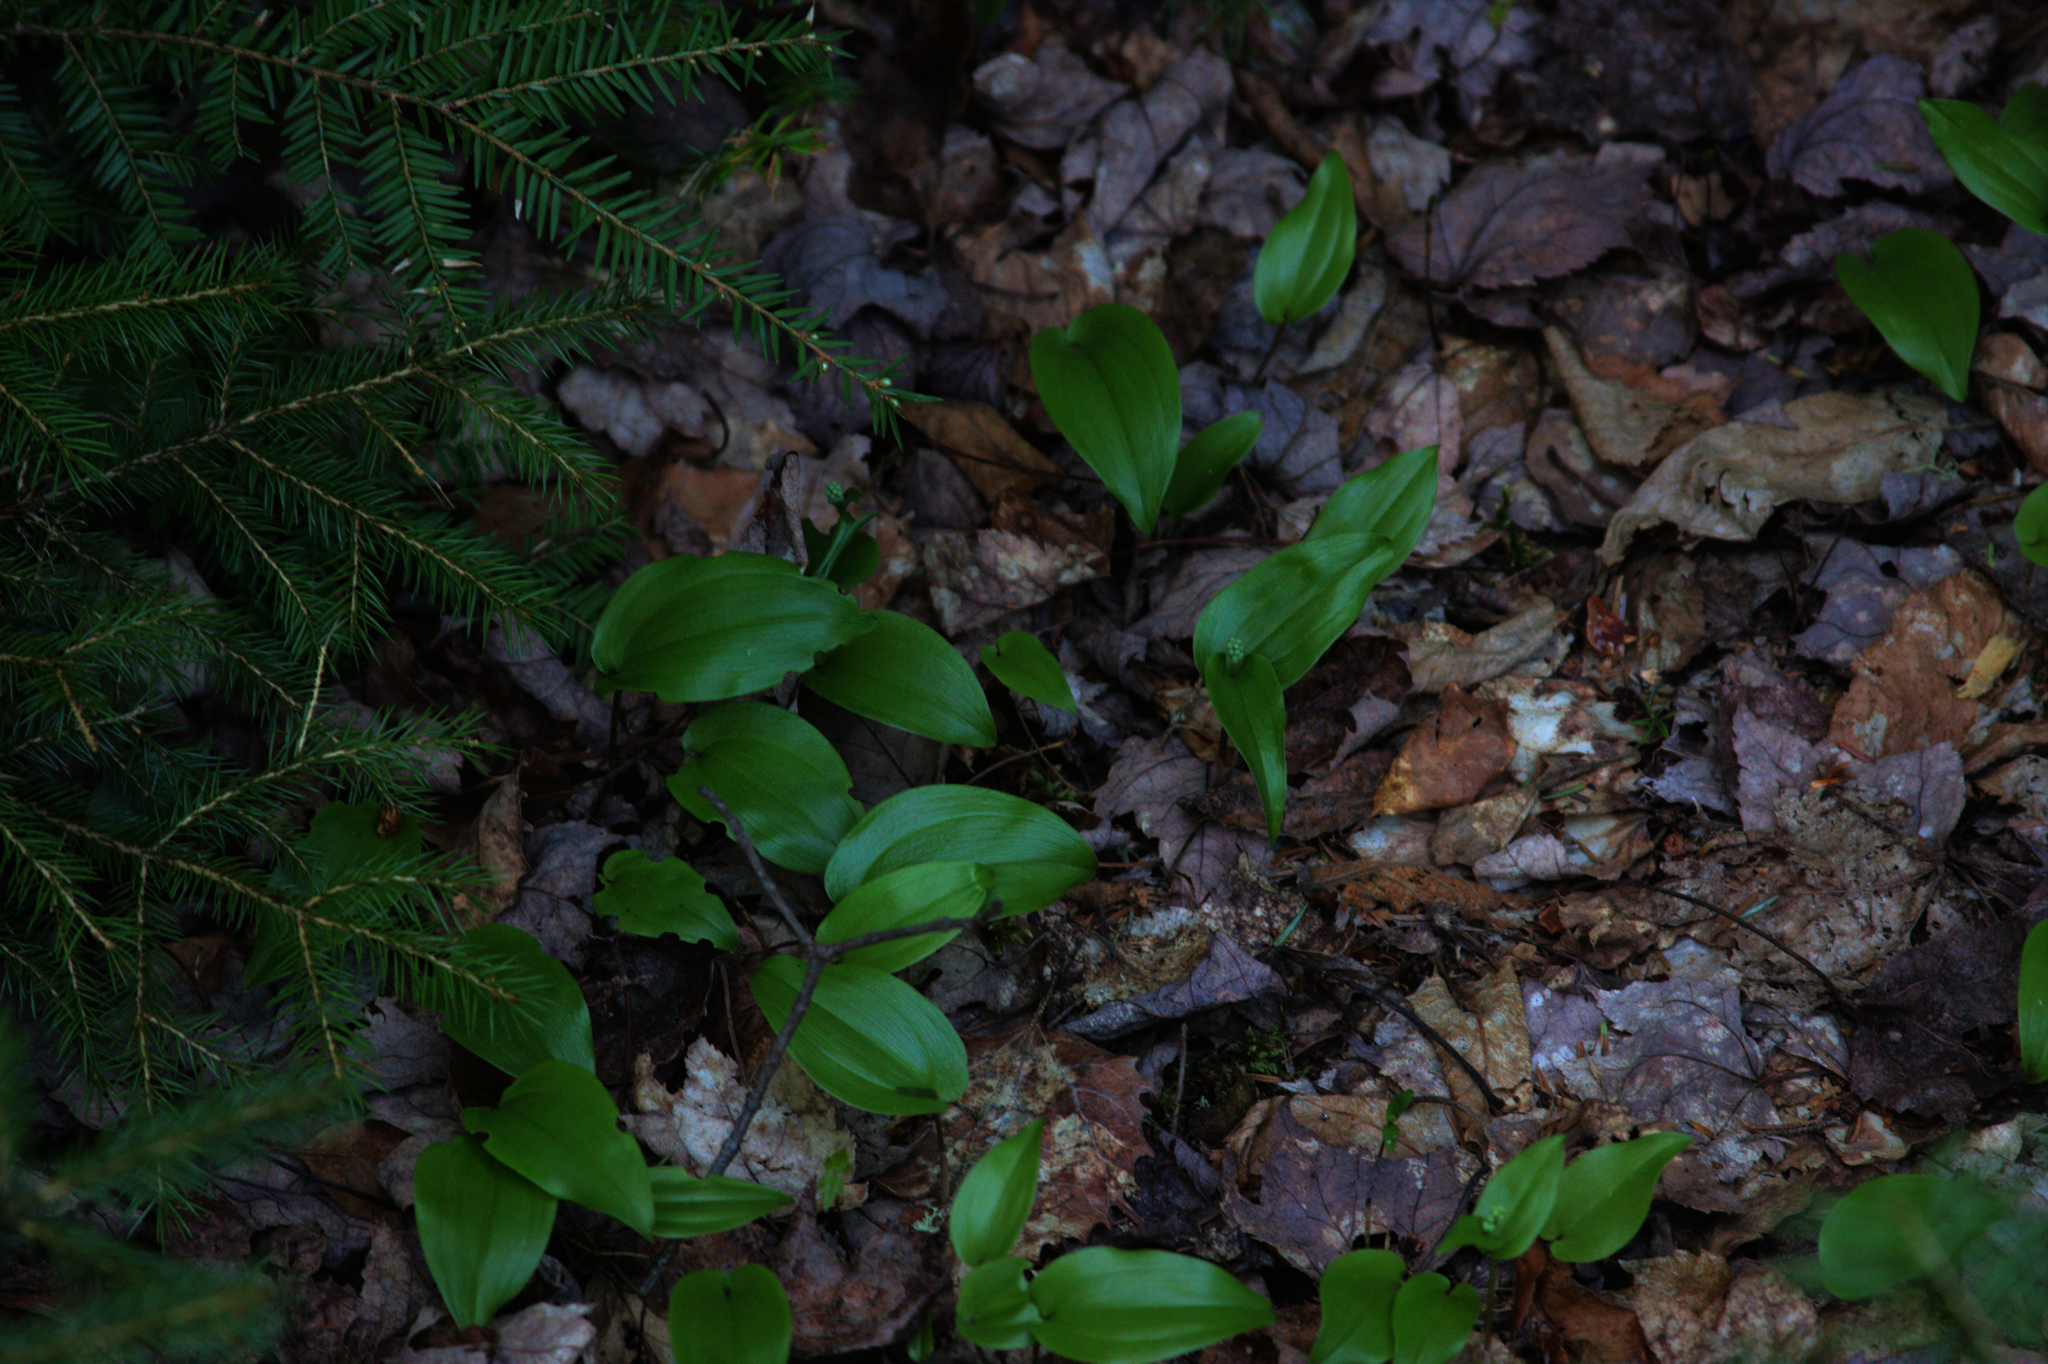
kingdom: Plantae
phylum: Tracheophyta
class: Pinopsida
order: Pinales
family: Pinaceae
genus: Tsuga
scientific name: Tsuga canadensis
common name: Eastern hemlock
